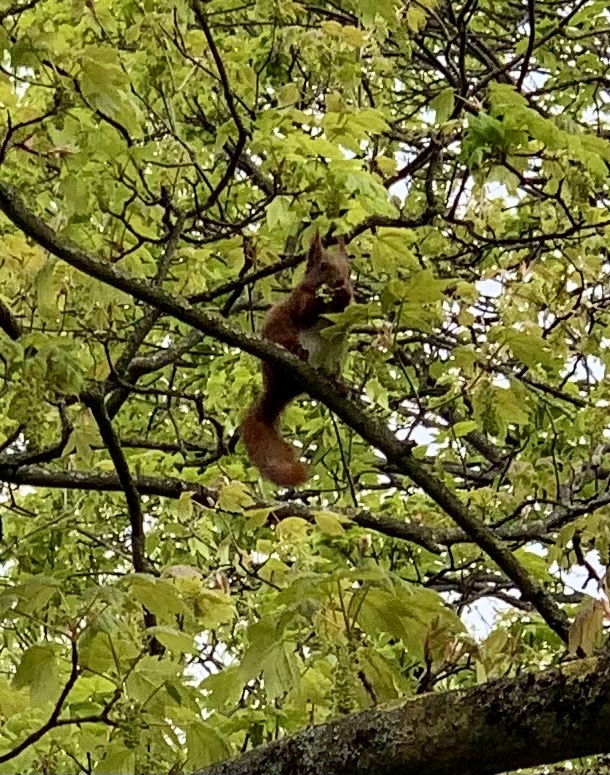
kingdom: Animalia
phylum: Chordata
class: Mammalia
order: Rodentia
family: Sciuridae
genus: Sciurus
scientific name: Sciurus vulgaris
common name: Eurasian red squirrel
